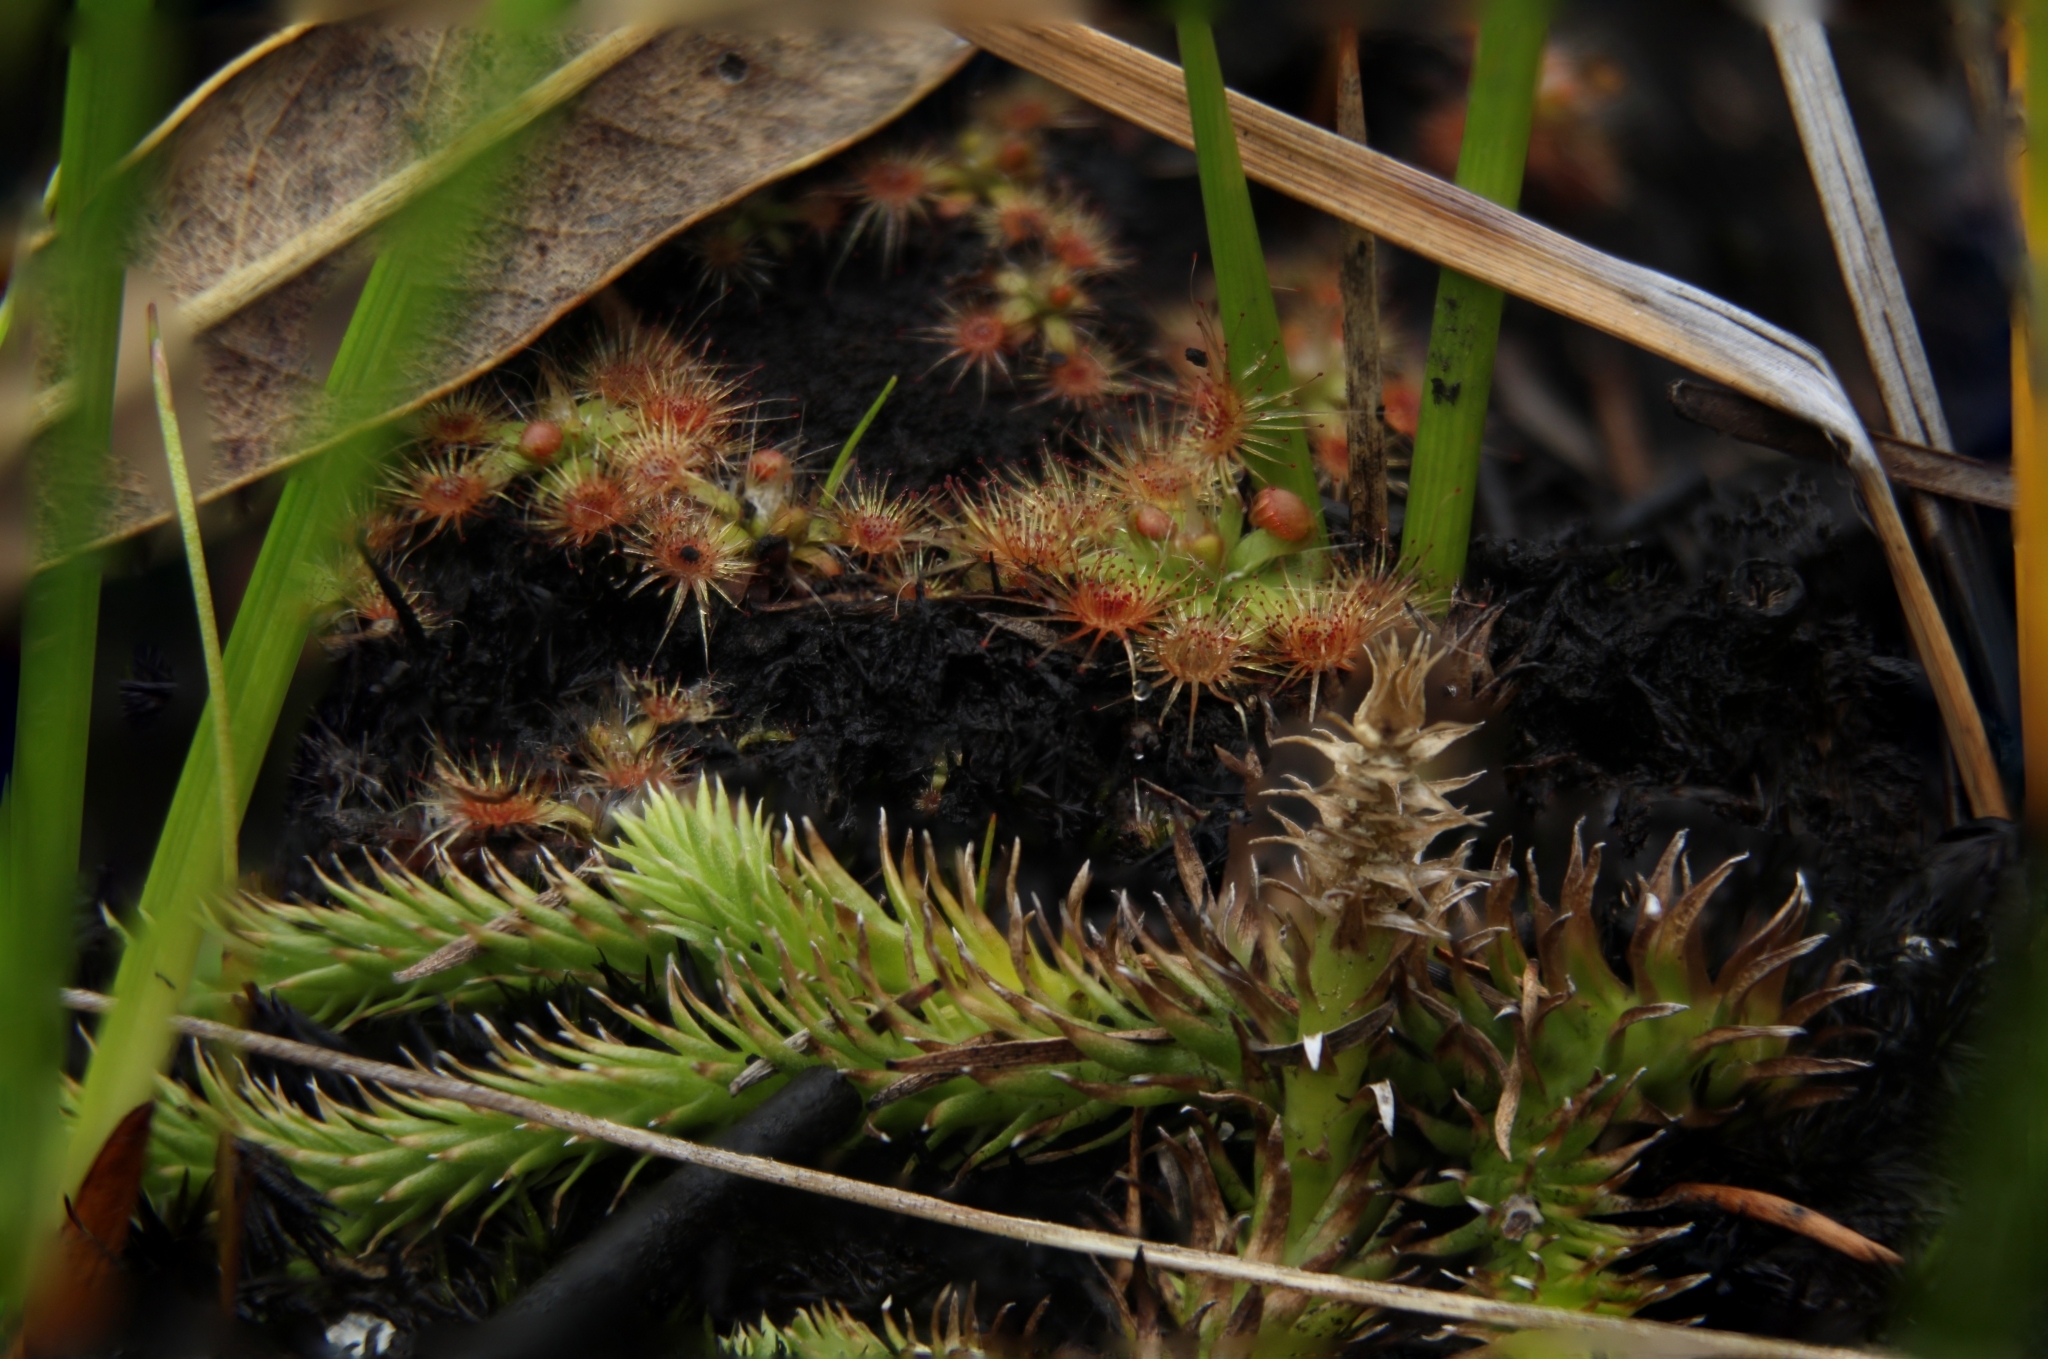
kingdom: Plantae
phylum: Tracheophyta
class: Magnoliopsida
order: Caryophyllales
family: Droseraceae
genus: Drosera
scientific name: Drosera pulchella
